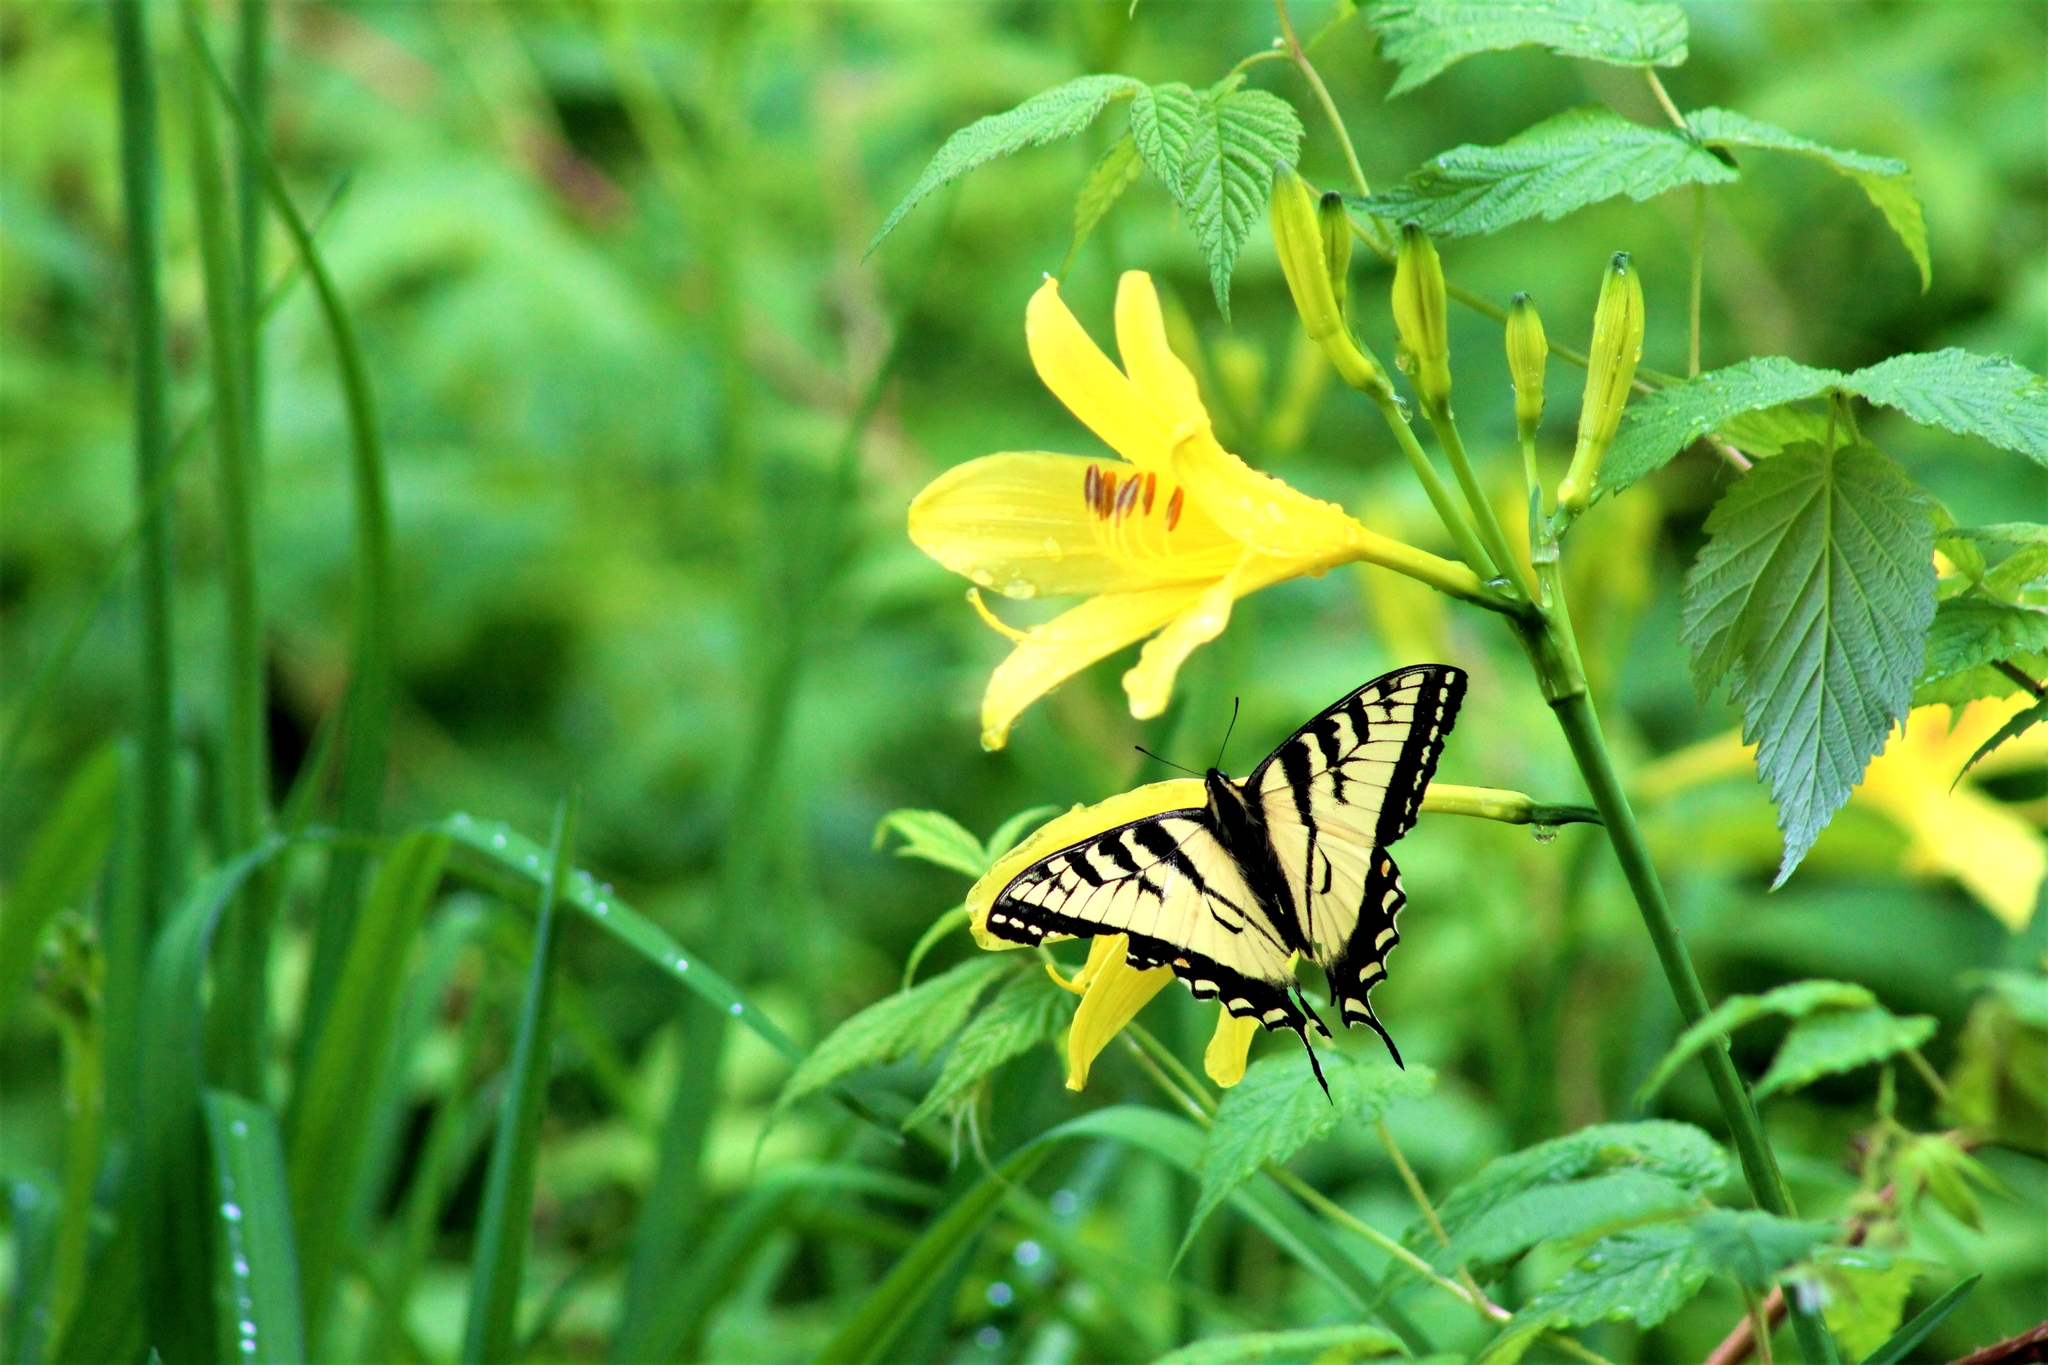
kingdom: Animalia
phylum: Arthropoda
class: Insecta
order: Lepidoptera
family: Papilionidae
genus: Papilio
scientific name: Papilio canadensis
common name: Canadian tiger swallowtail
